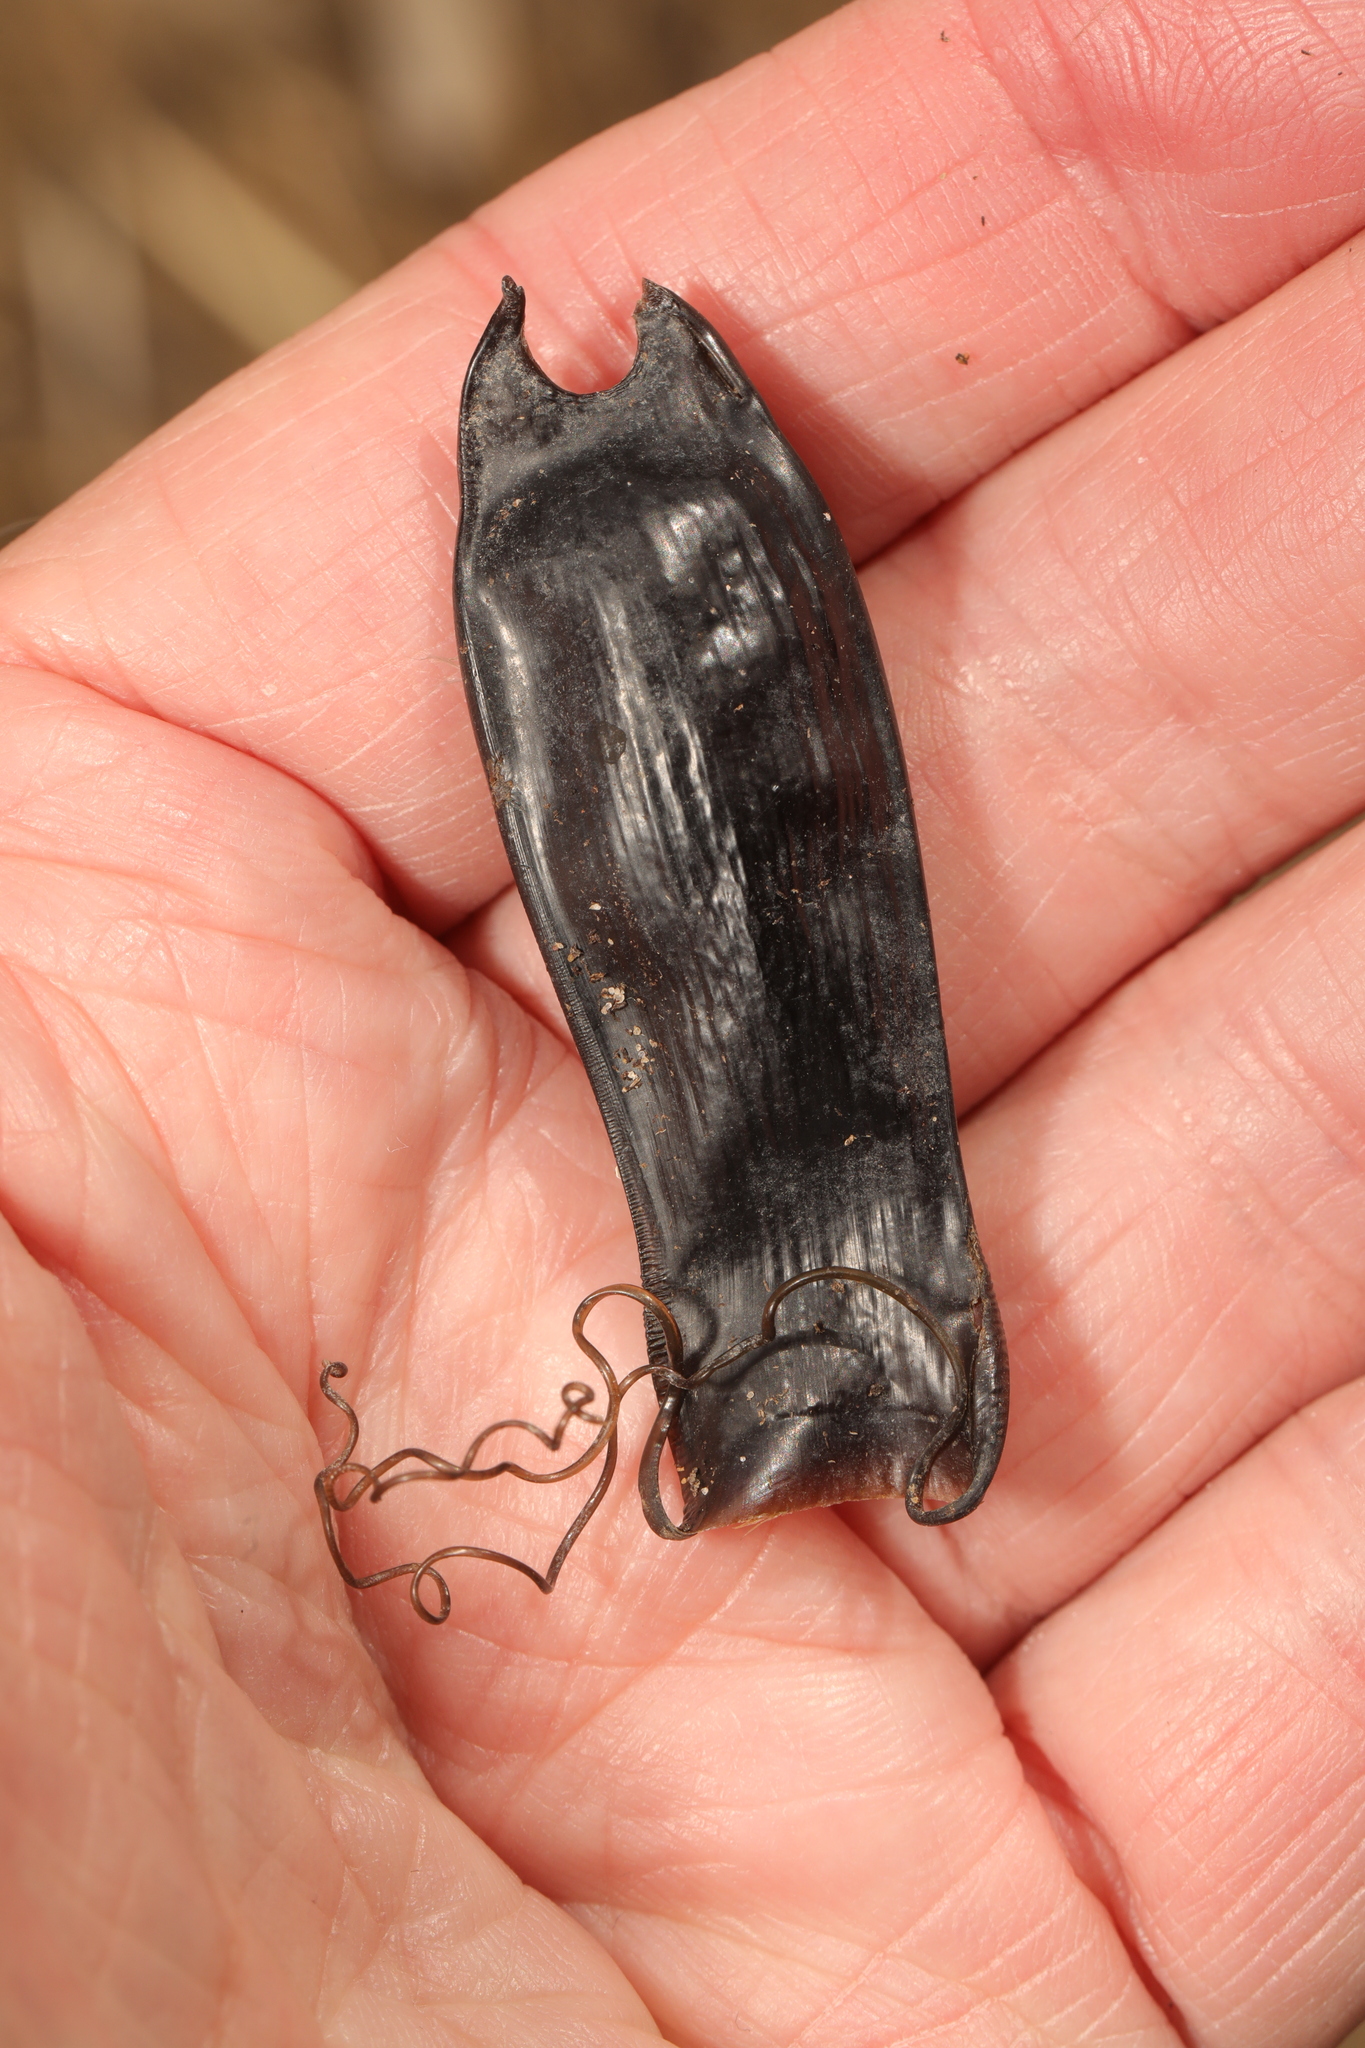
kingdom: Animalia
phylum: Chordata
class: Elasmobranchii
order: Carcharhiniformes
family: Scyliorhinidae
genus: Scyliorhinus
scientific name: Scyliorhinus canicula
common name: Lesser spotted dogfish
